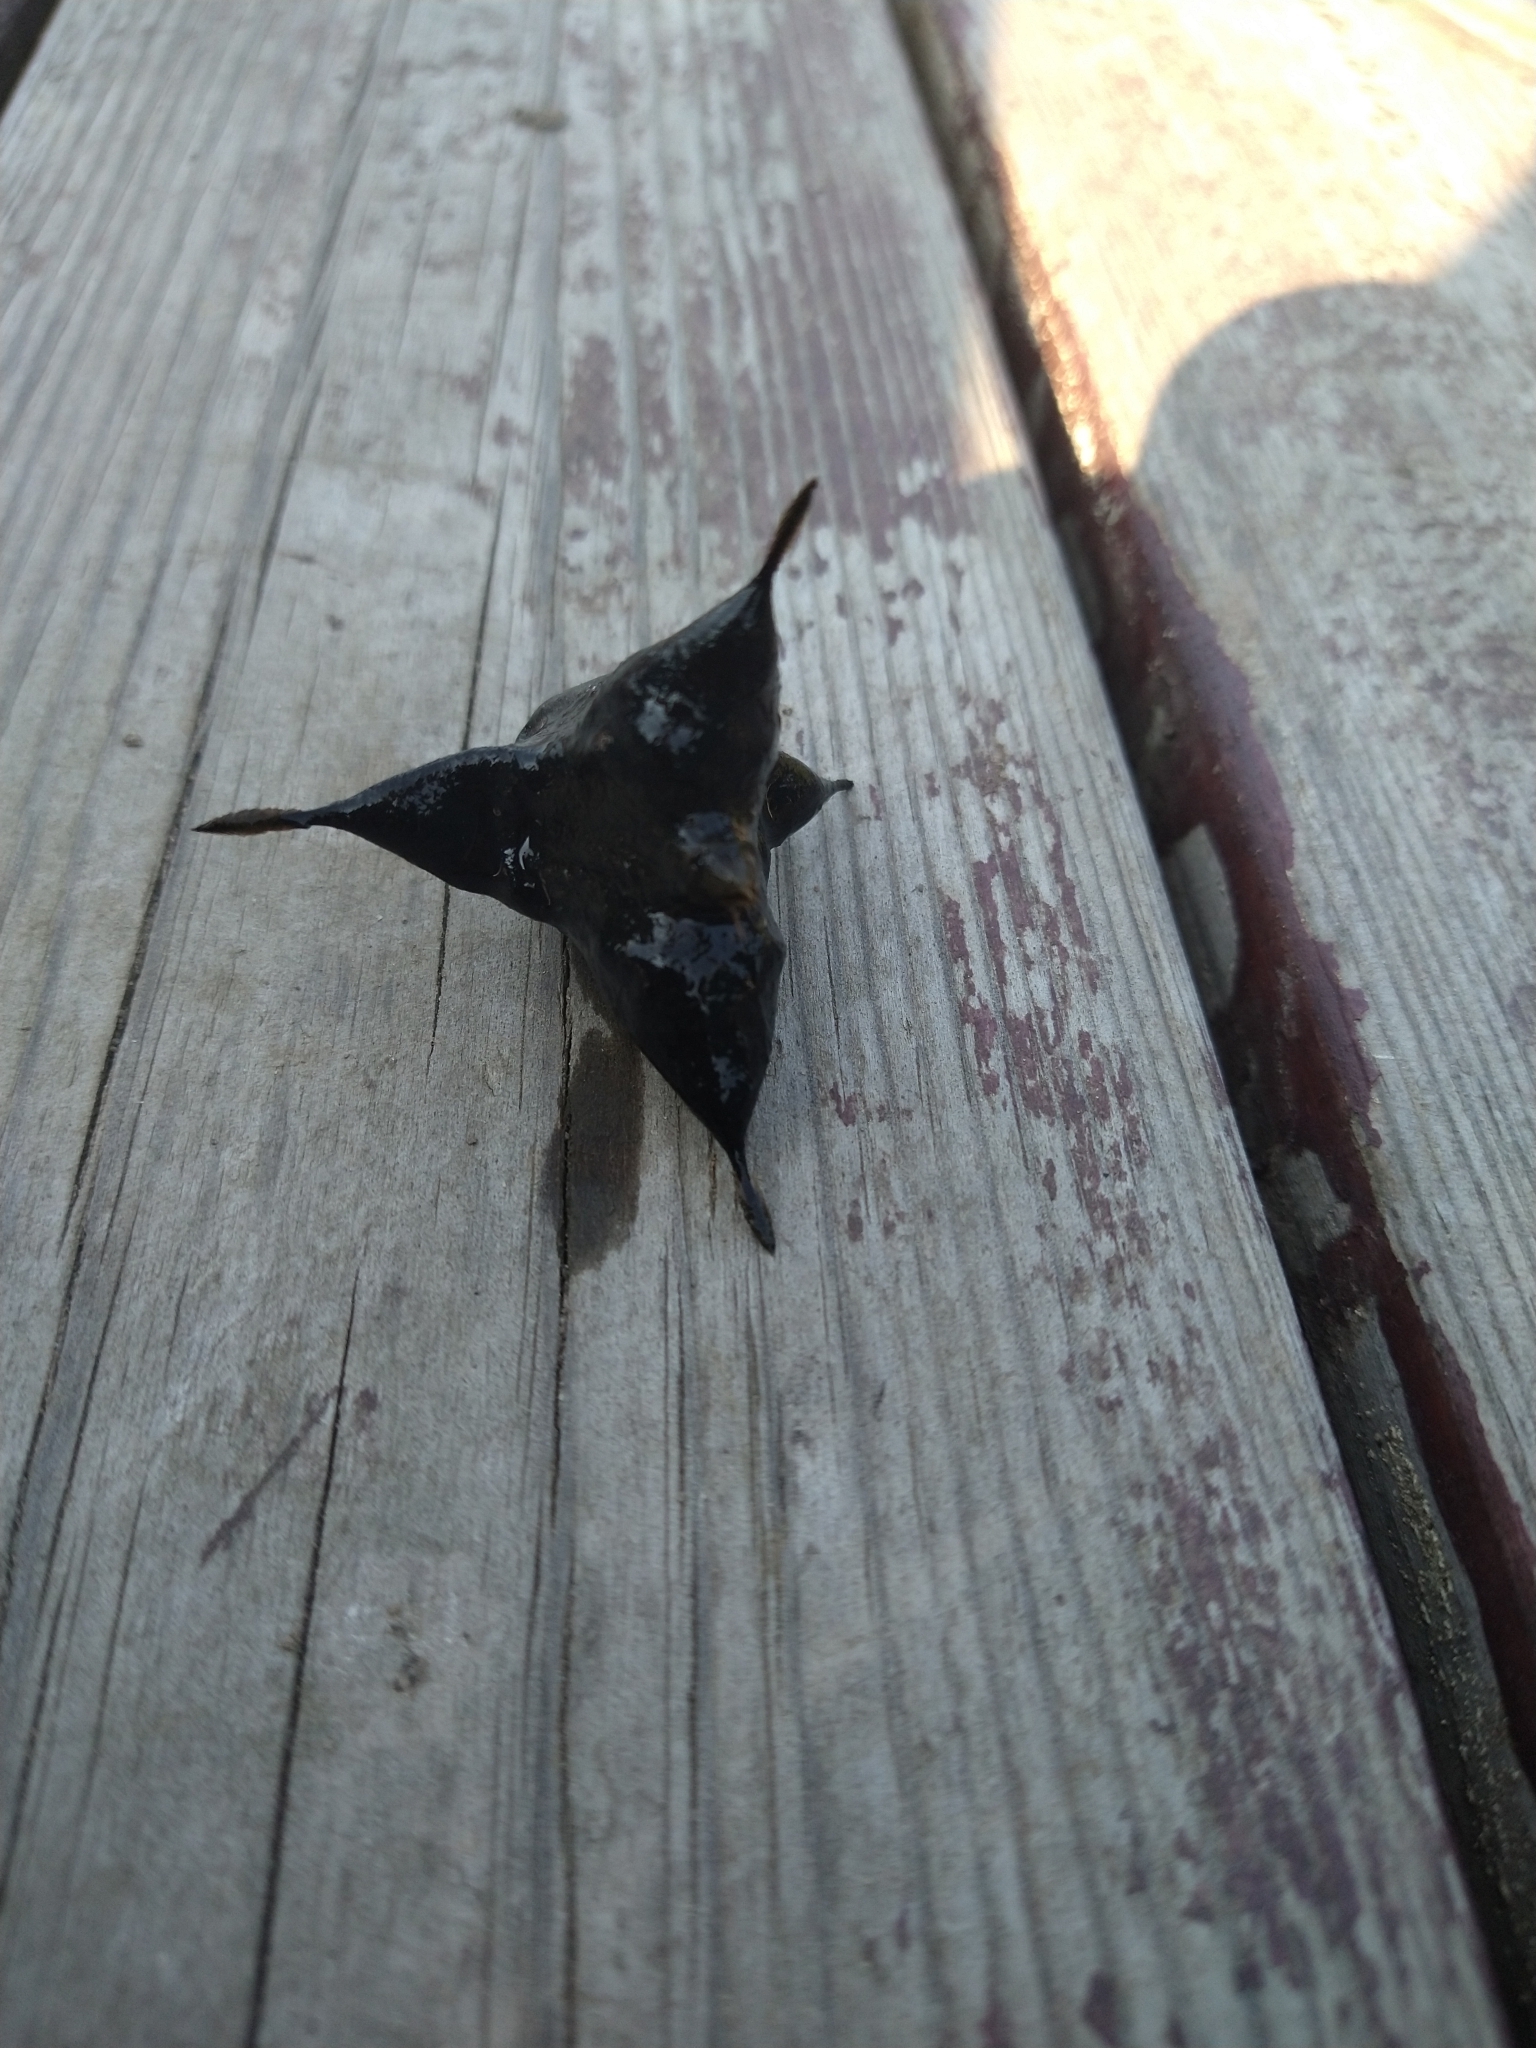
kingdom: Plantae
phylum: Tracheophyta
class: Magnoliopsida
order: Myrtales
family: Lythraceae
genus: Trapa
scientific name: Trapa natans
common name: Water chestnut
